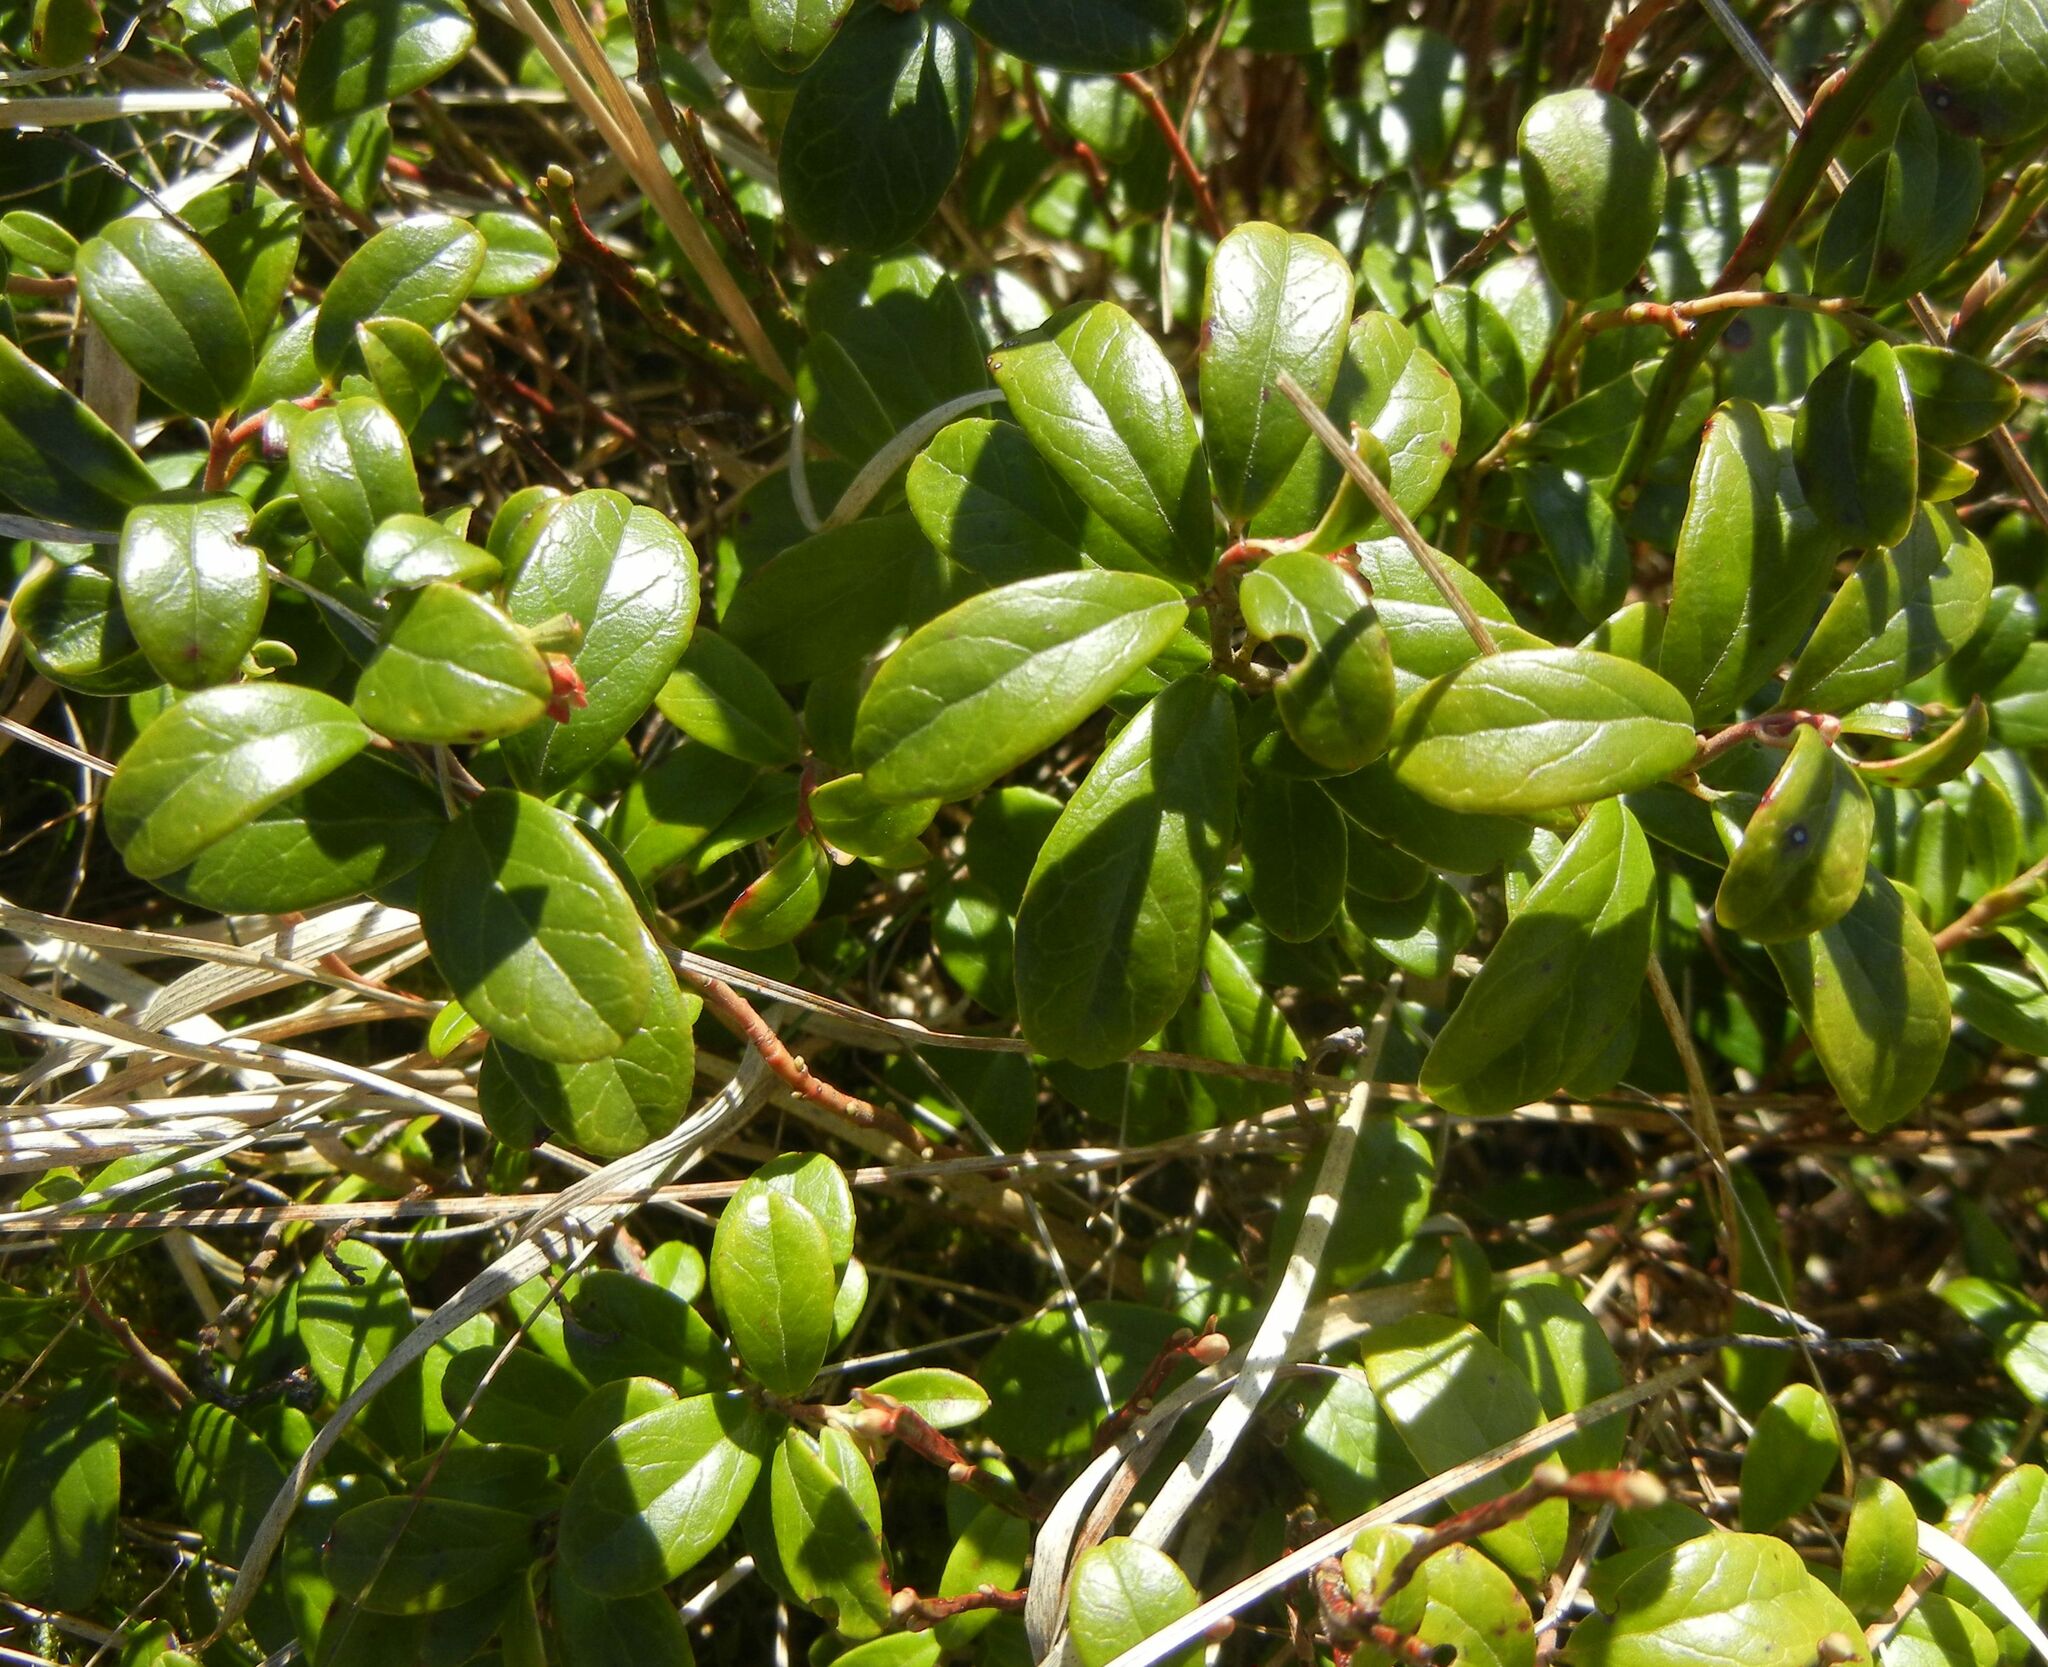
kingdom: Plantae
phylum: Tracheophyta
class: Magnoliopsida
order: Ericales
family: Ericaceae
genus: Vaccinium
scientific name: Vaccinium vitis-idaea
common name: Cowberry
